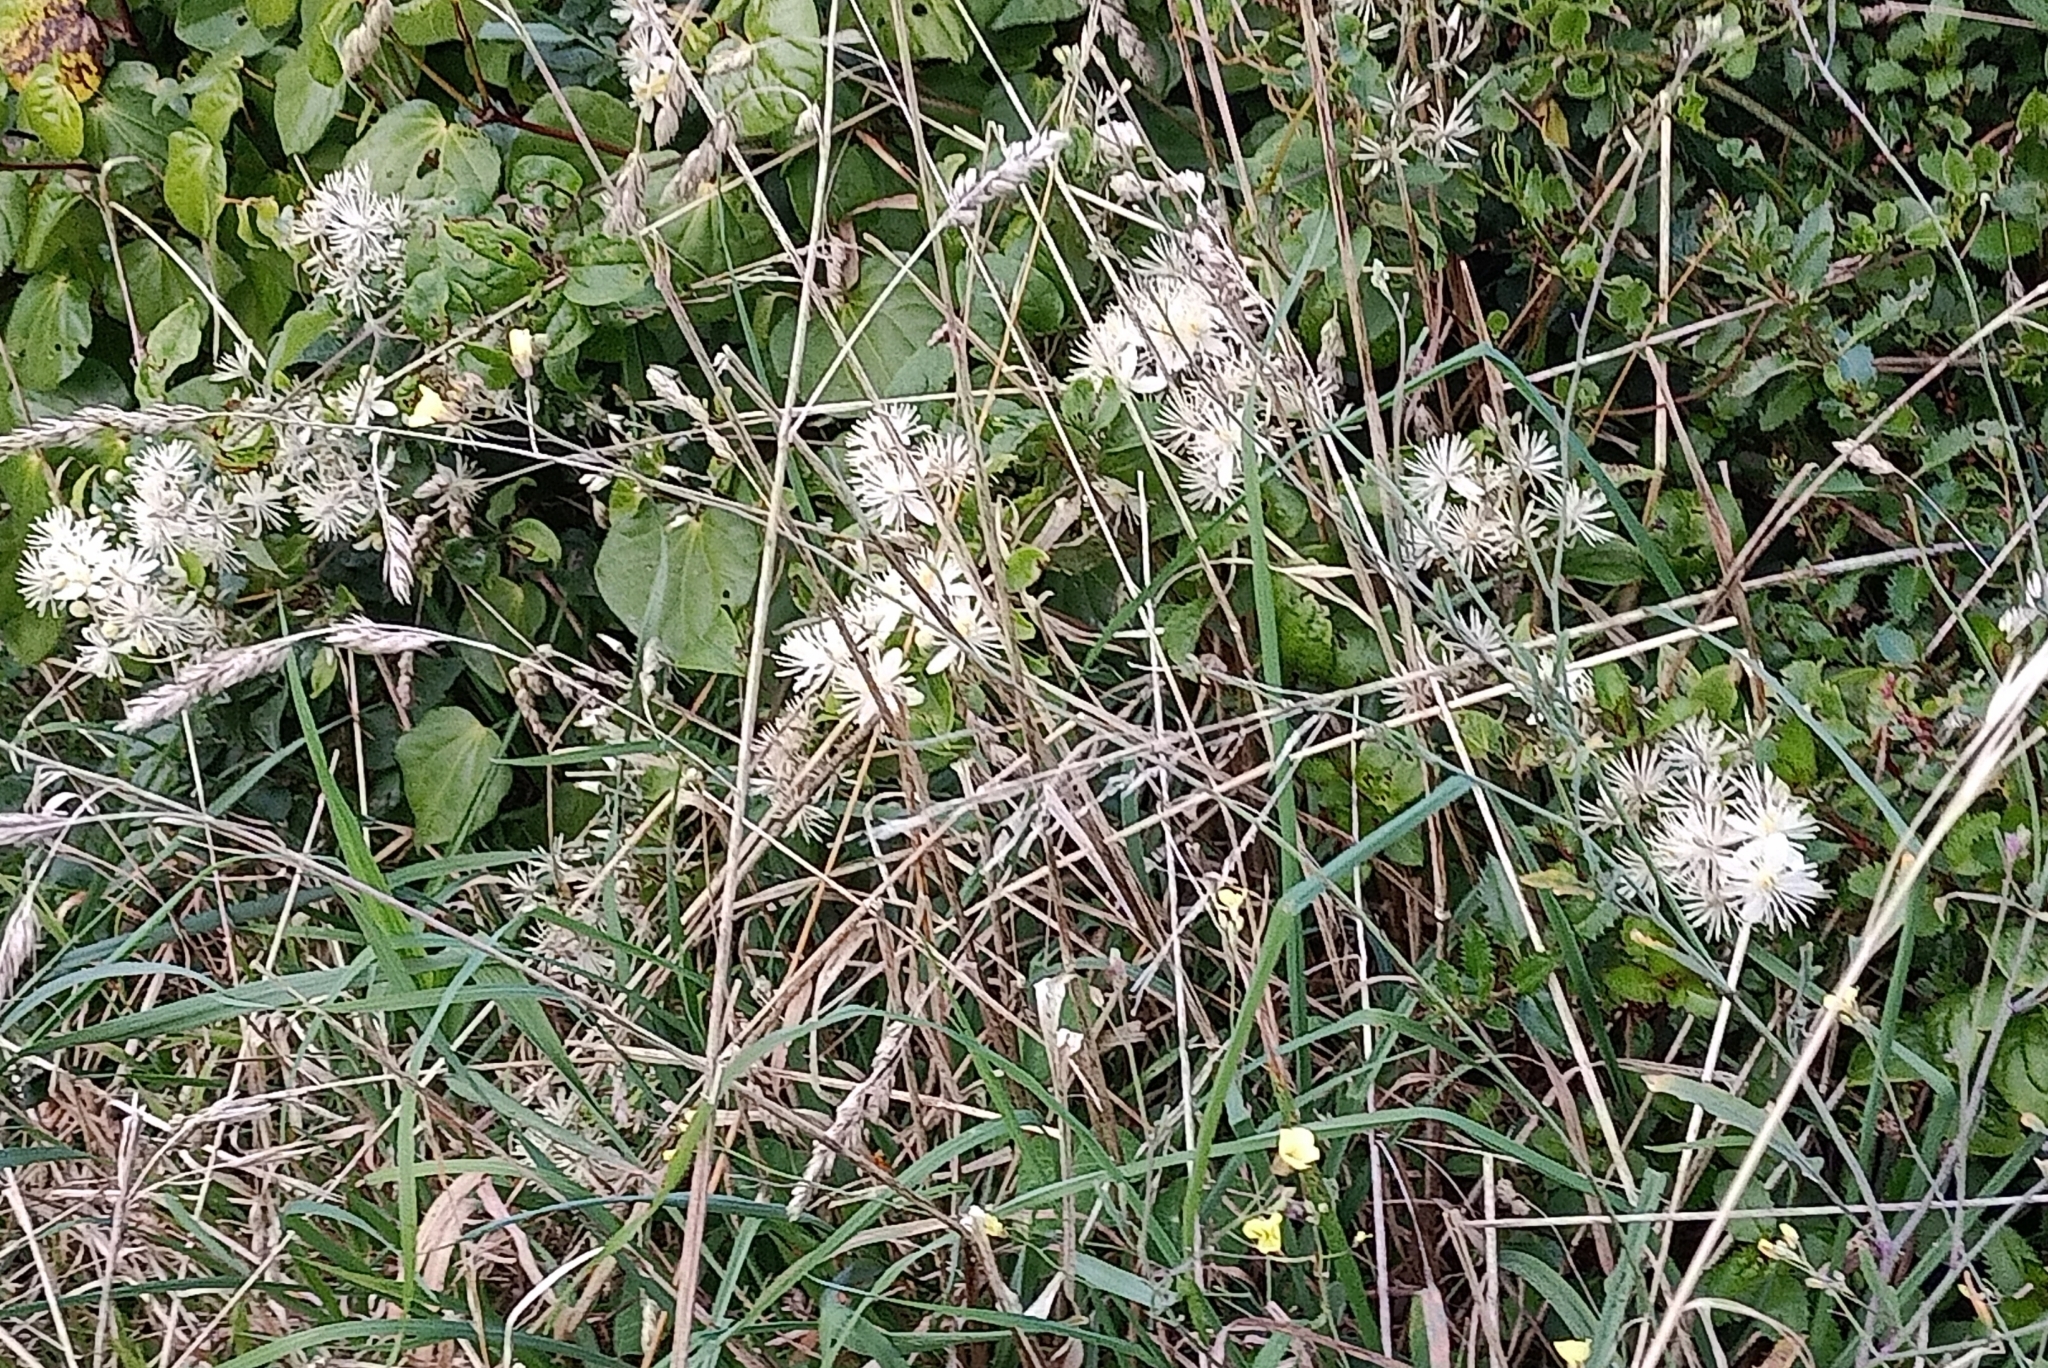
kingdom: Plantae
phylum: Tracheophyta
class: Magnoliopsida
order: Ranunculales
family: Ranunculaceae
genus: Clematis
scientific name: Clematis vitalba
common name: Evergreen clematis
